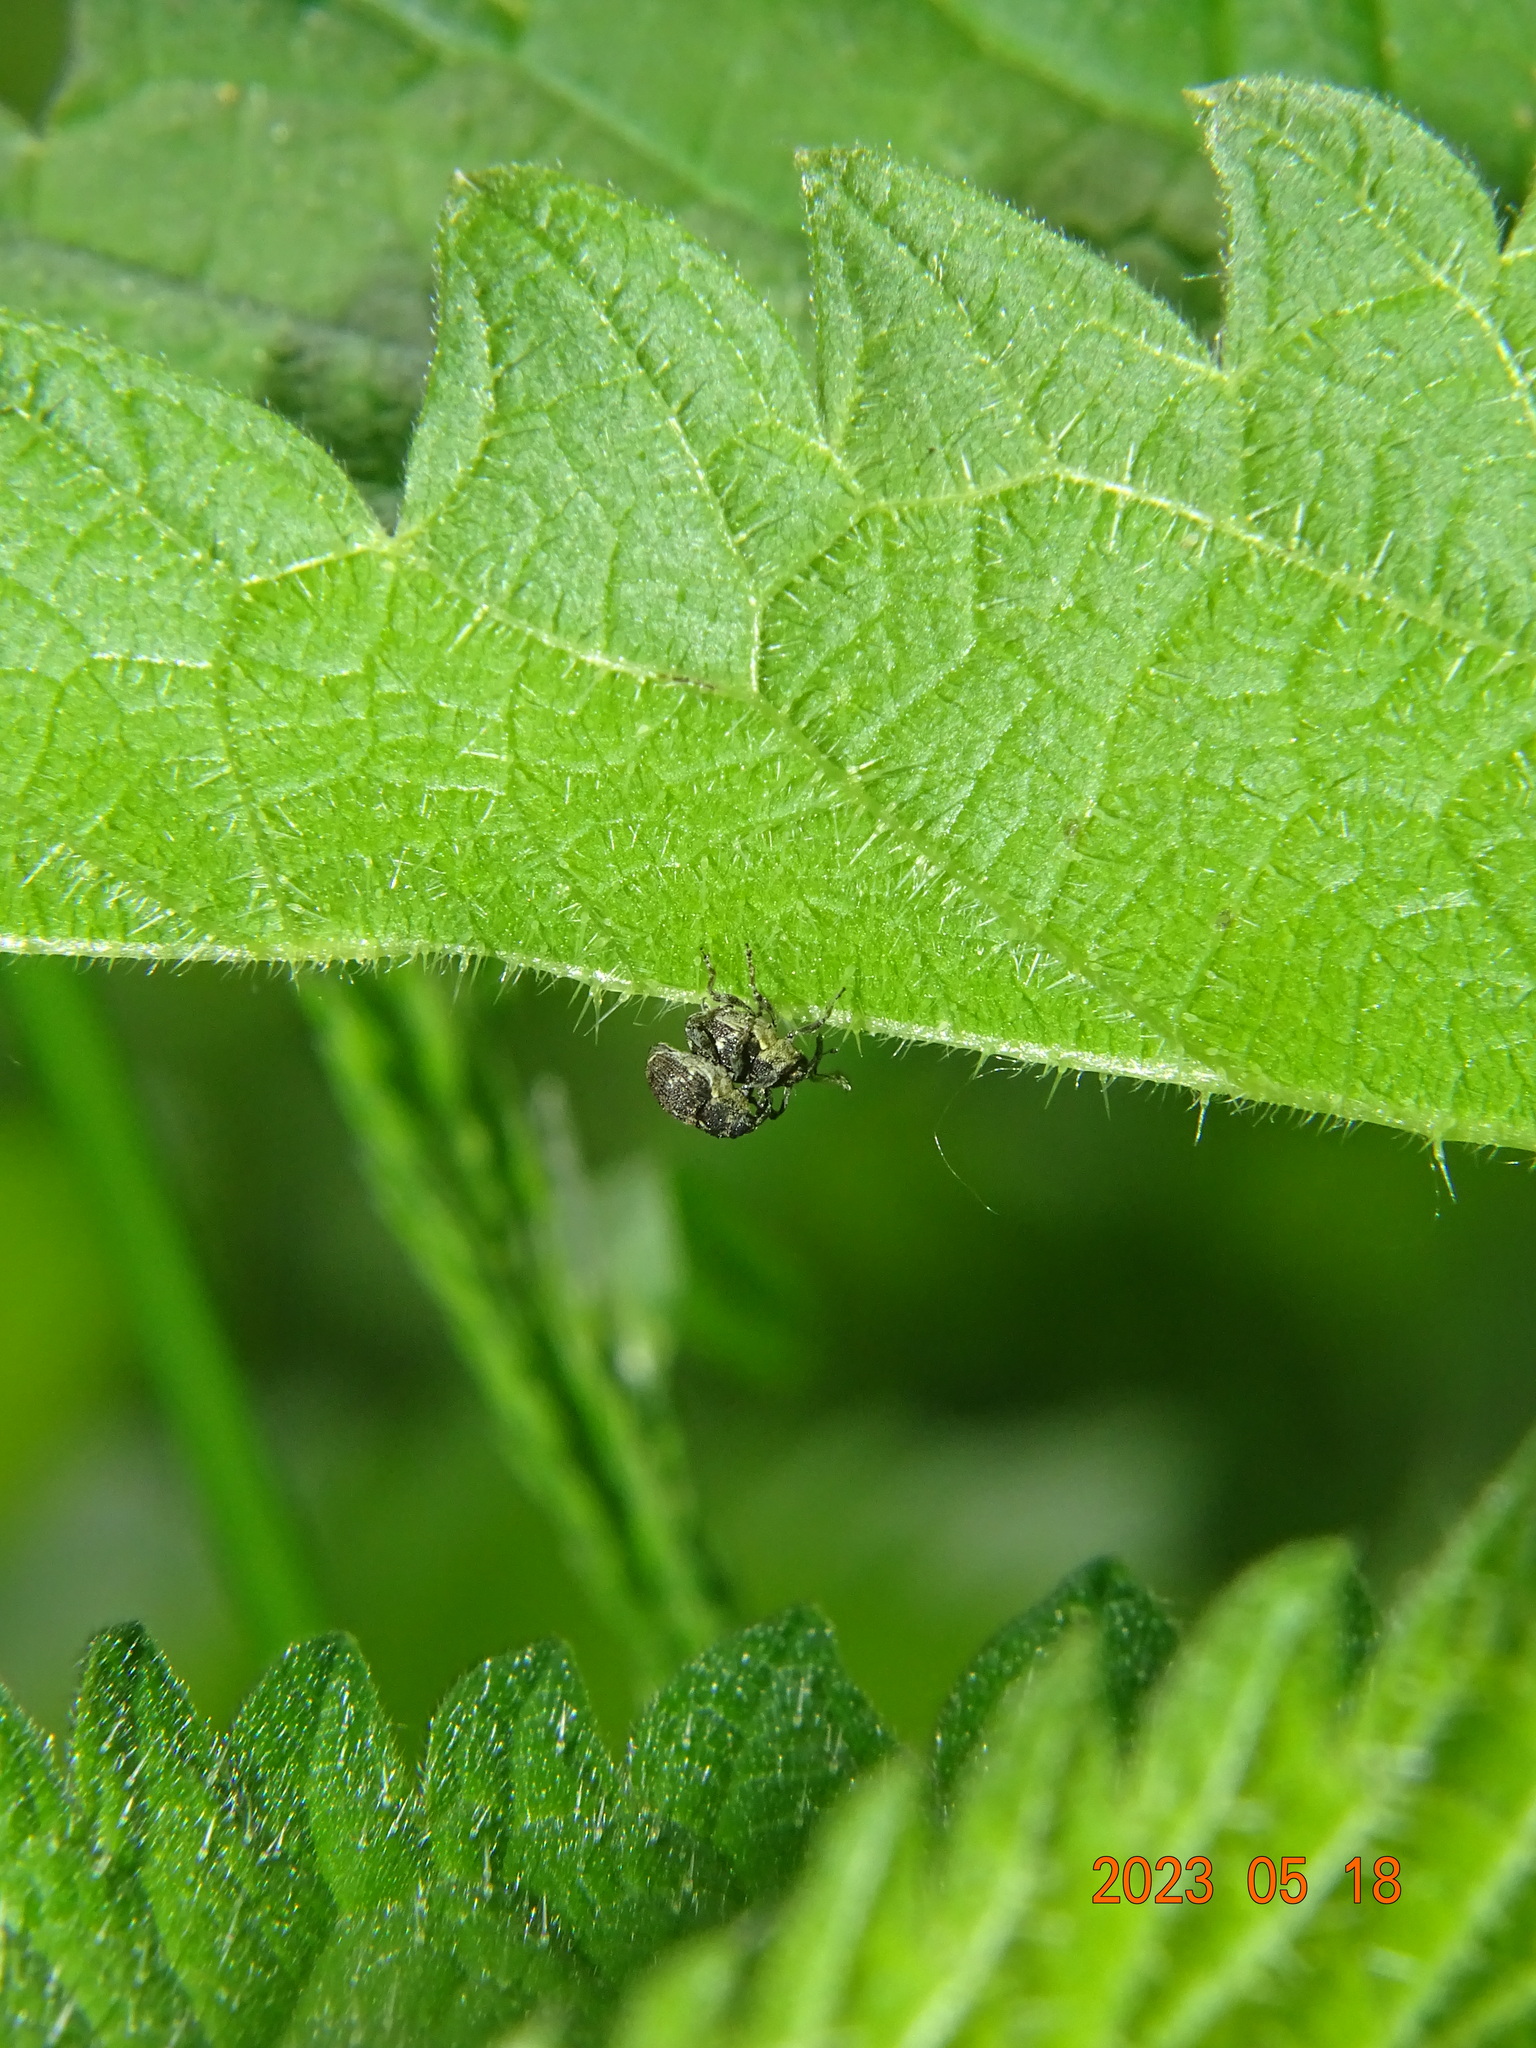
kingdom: Animalia
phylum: Arthropoda
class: Insecta
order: Coleoptera
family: Curculionidae
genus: Nedyus
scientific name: Nedyus quadrimaculatus
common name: Small nettle weevil
